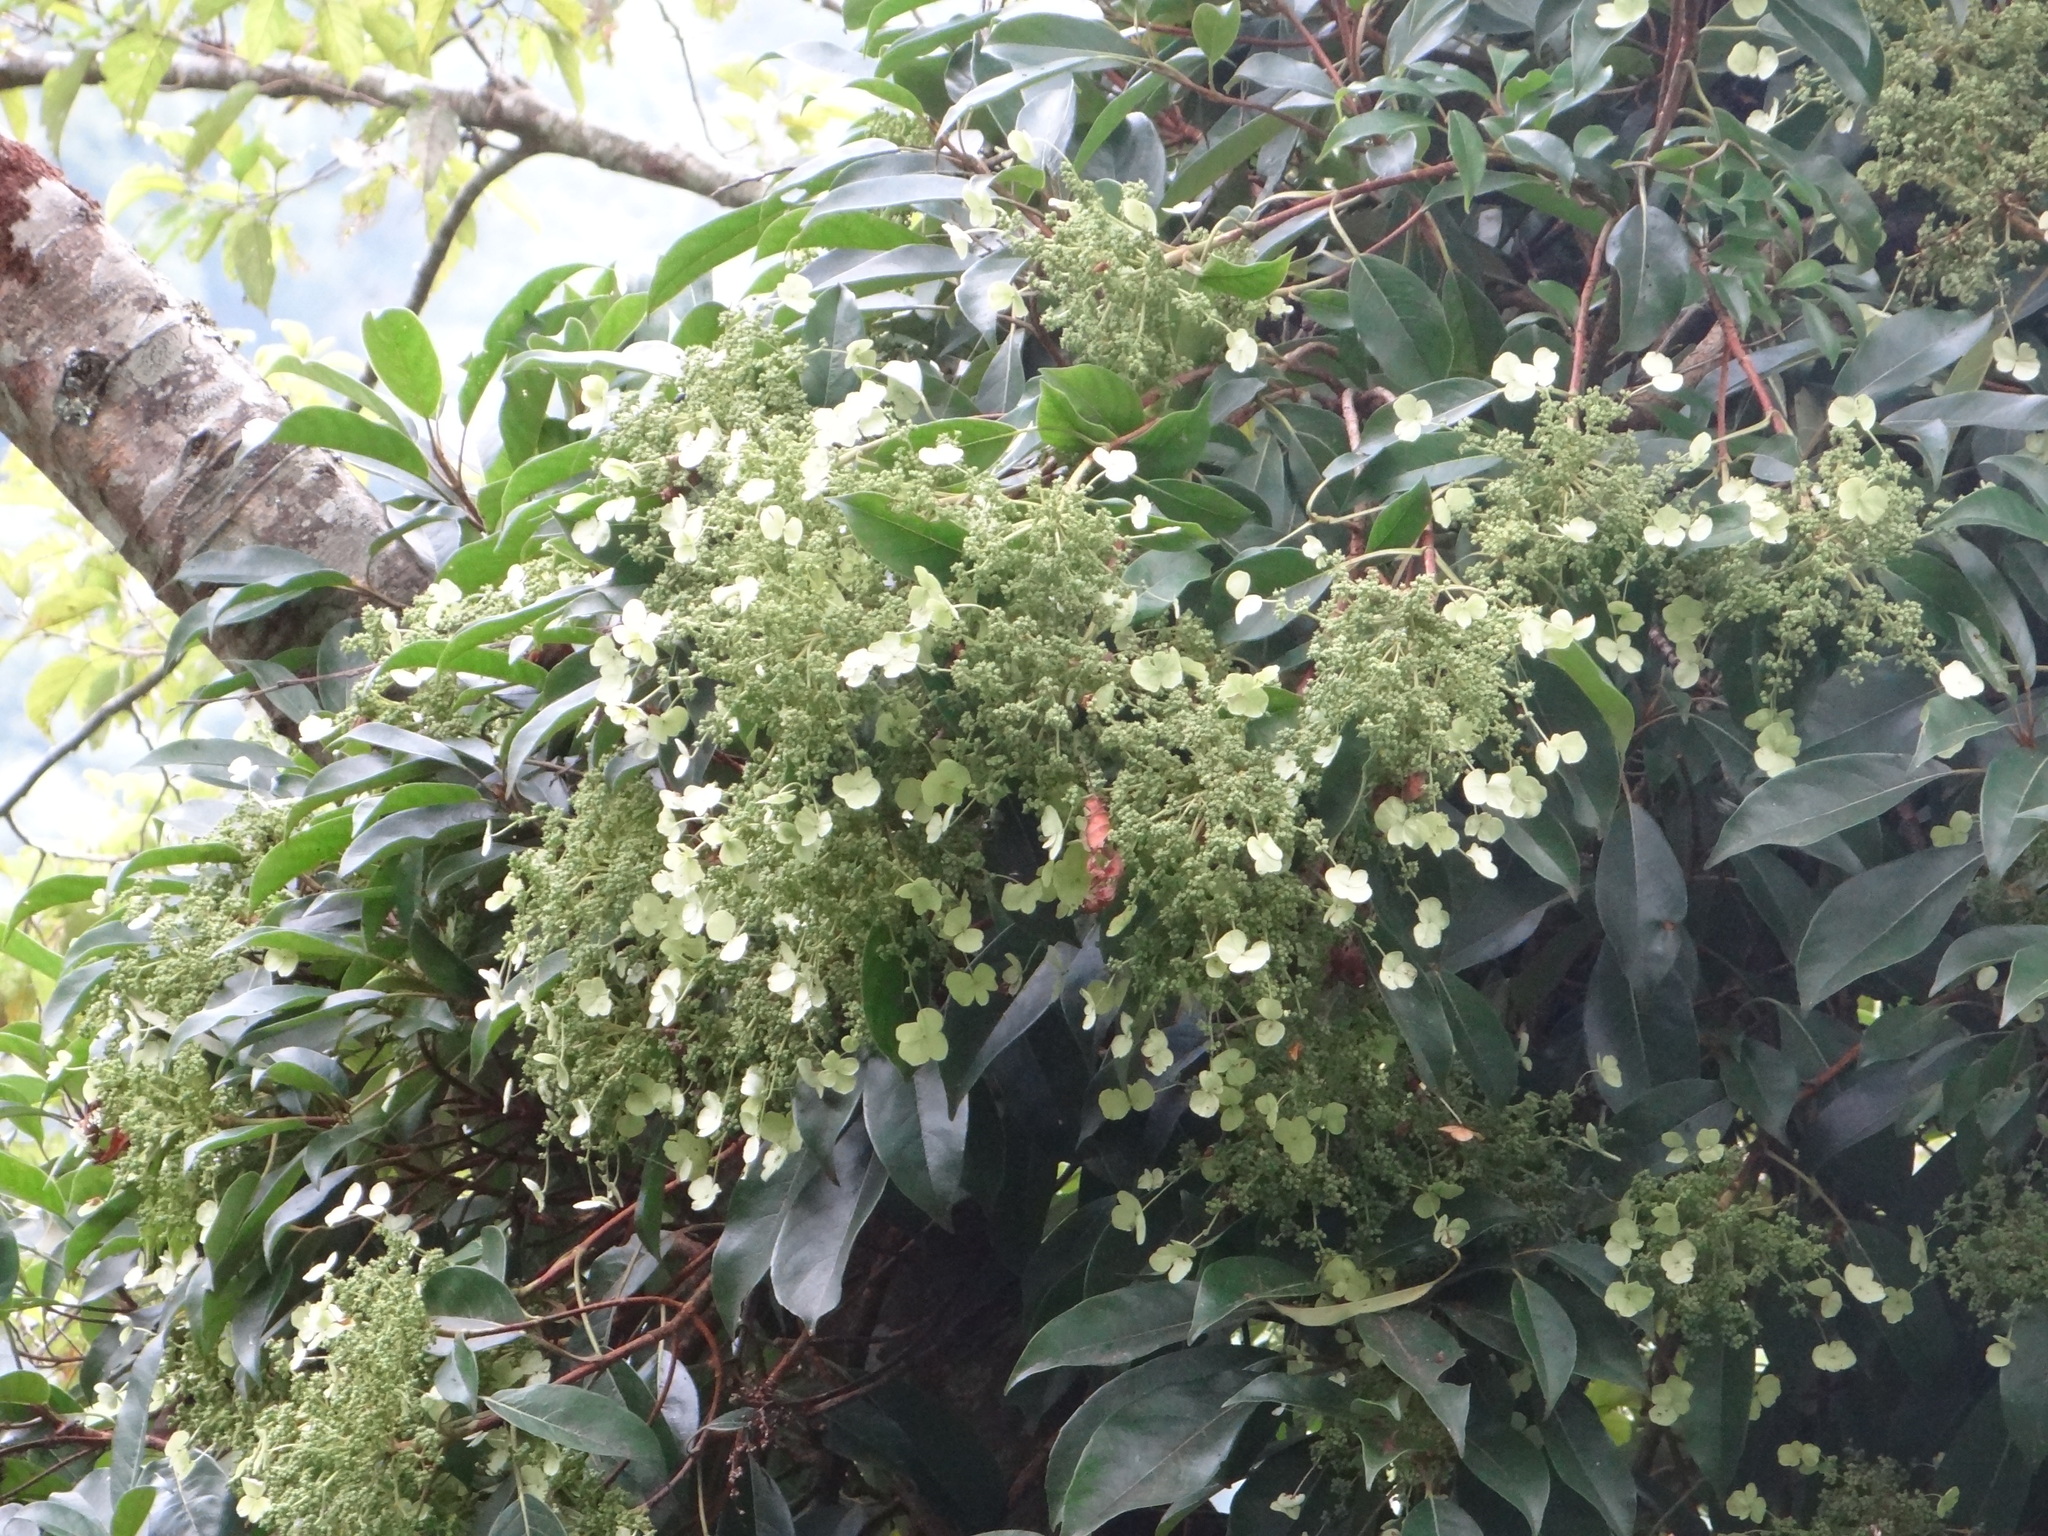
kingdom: Plantae
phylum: Tracheophyta
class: Magnoliopsida
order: Cornales
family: Hydrangeaceae
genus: Hydrangea
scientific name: Hydrangea integrifolia
